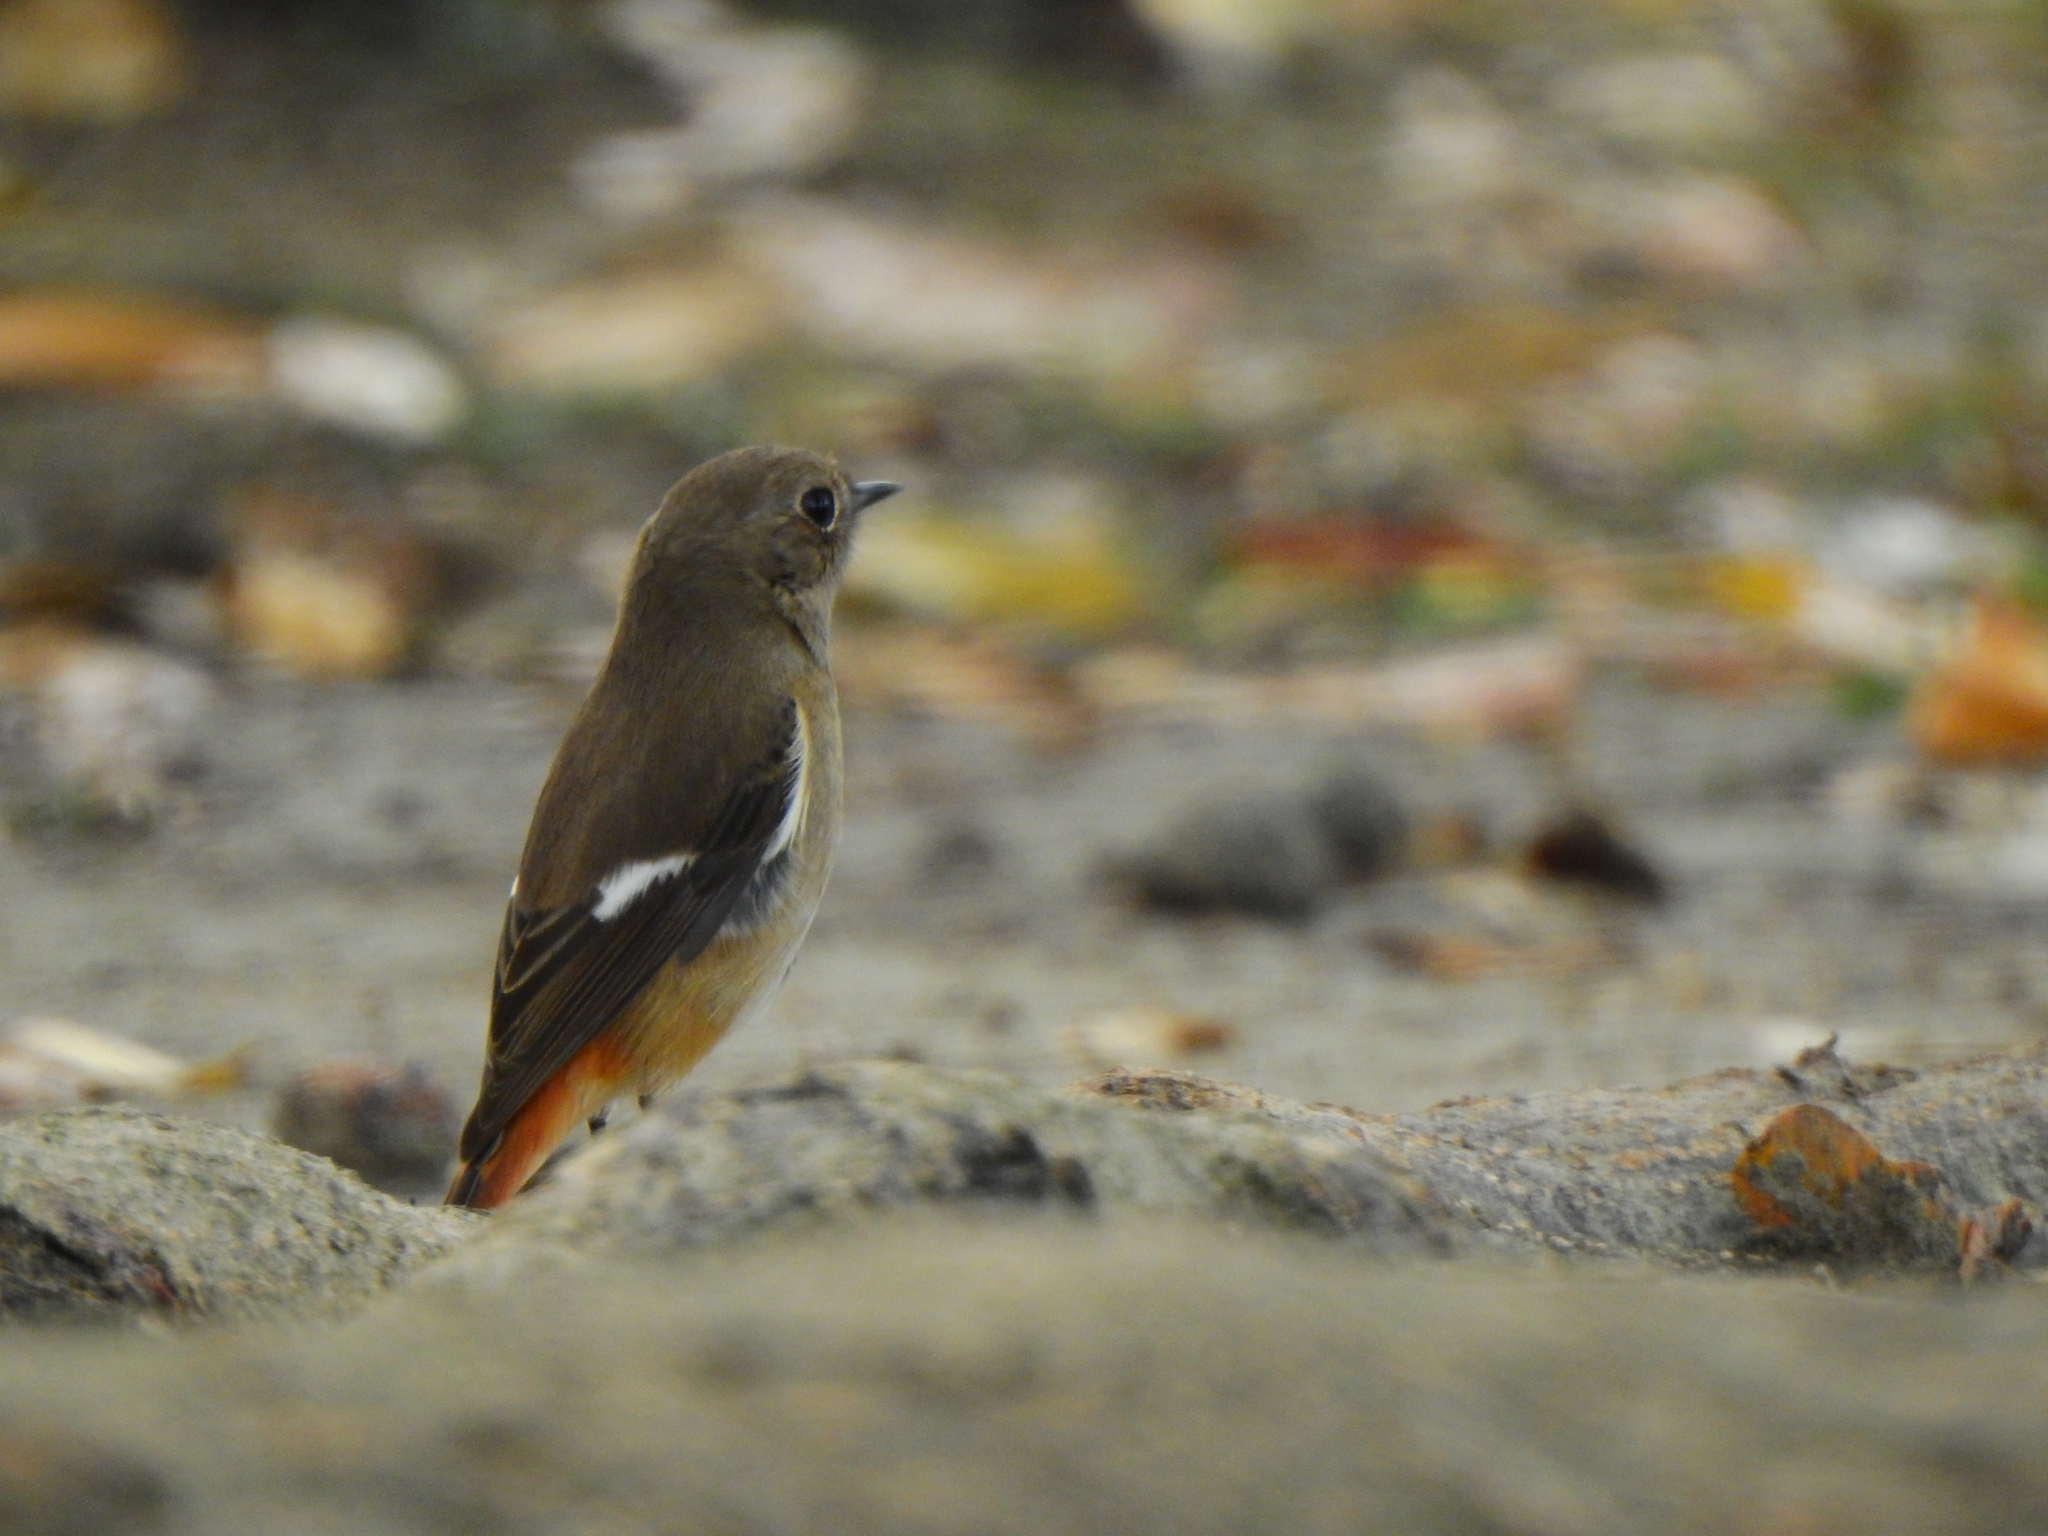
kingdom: Animalia
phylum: Chordata
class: Aves
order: Passeriformes
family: Muscicapidae
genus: Phoenicurus
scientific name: Phoenicurus auroreus
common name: Daurian redstart
